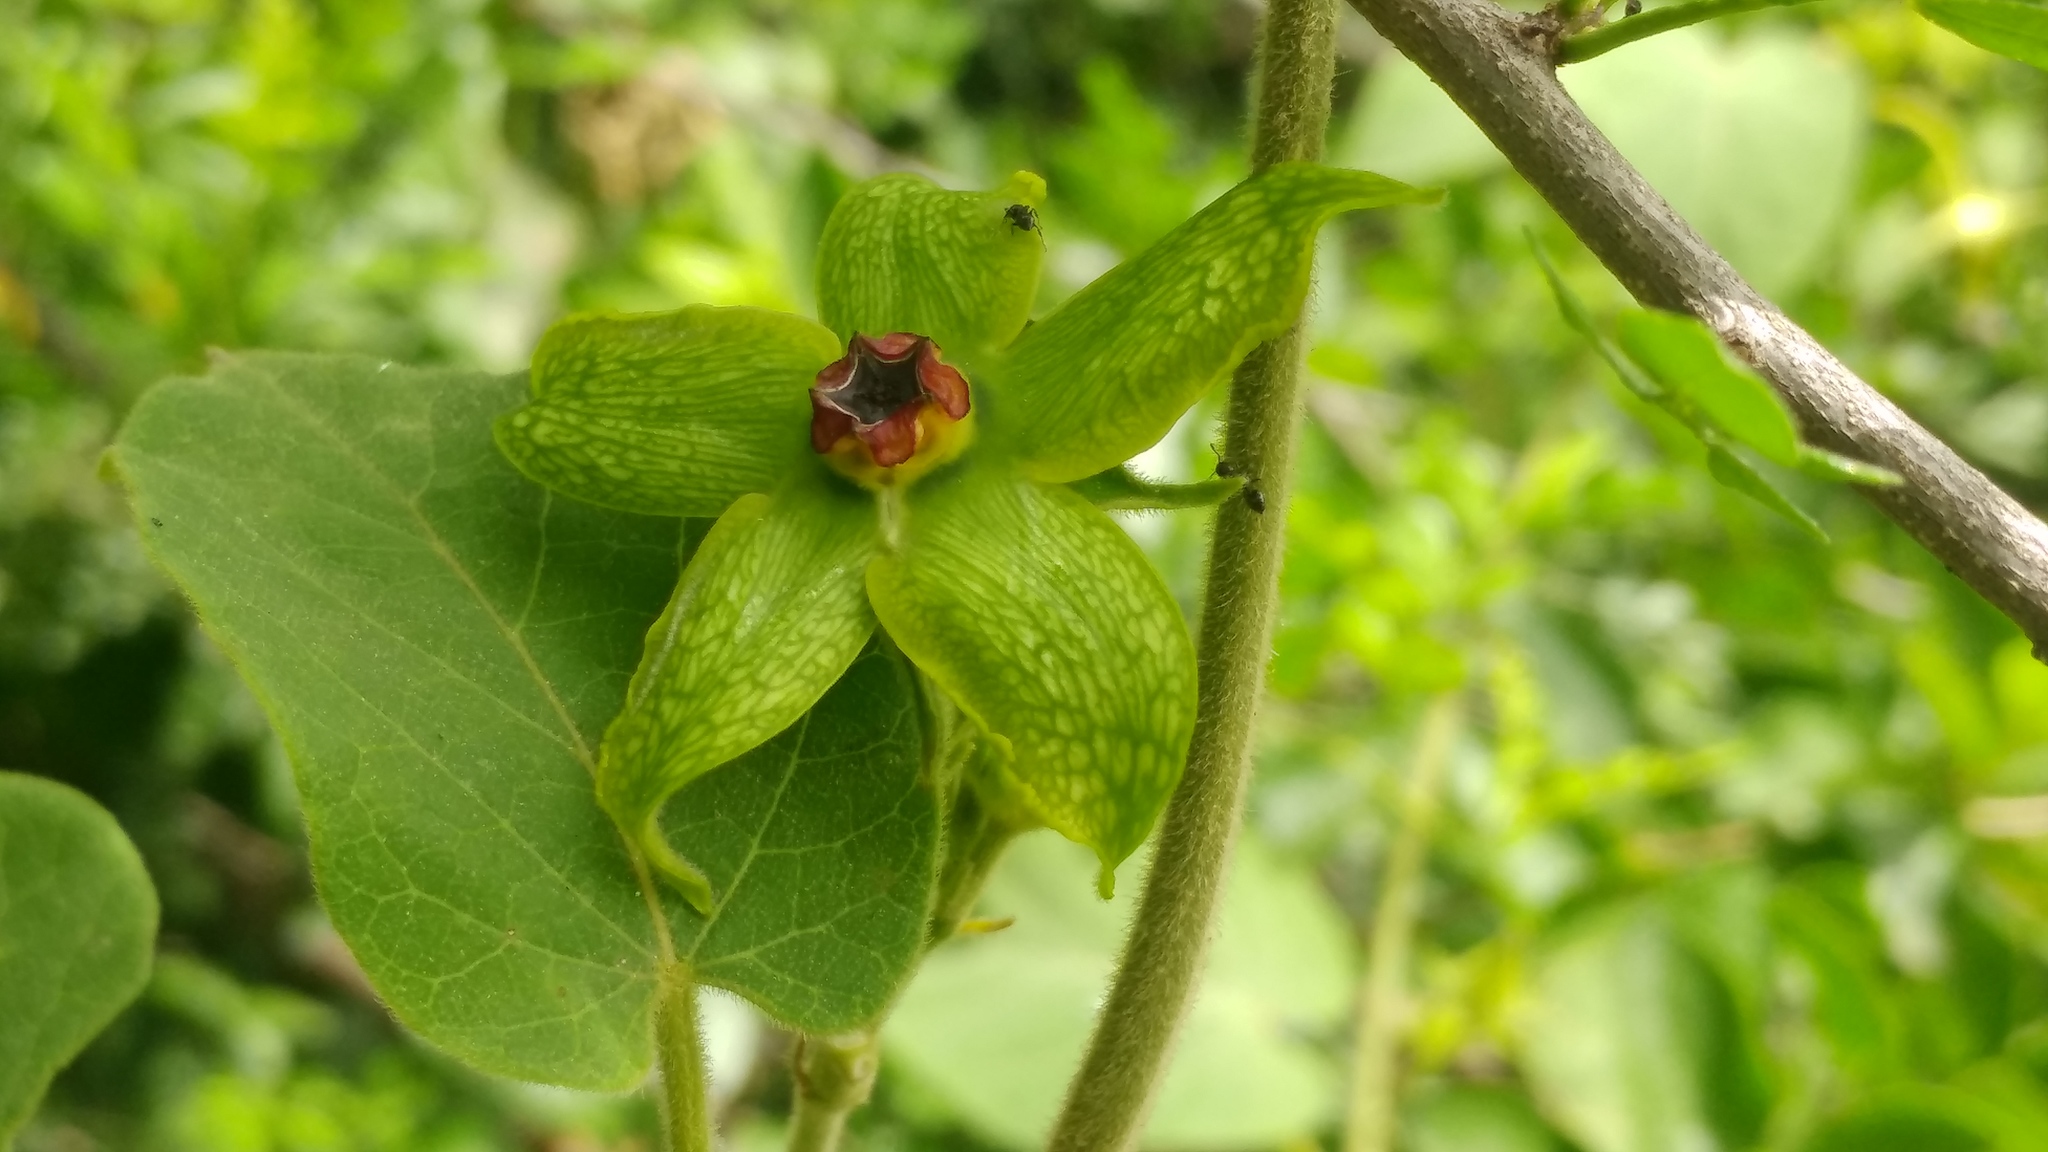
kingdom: Plantae
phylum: Tracheophyta
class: Magnoliopsida
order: Gentianales
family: Apocynaceae
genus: Gonolobus
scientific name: Gonolobus erianthus
